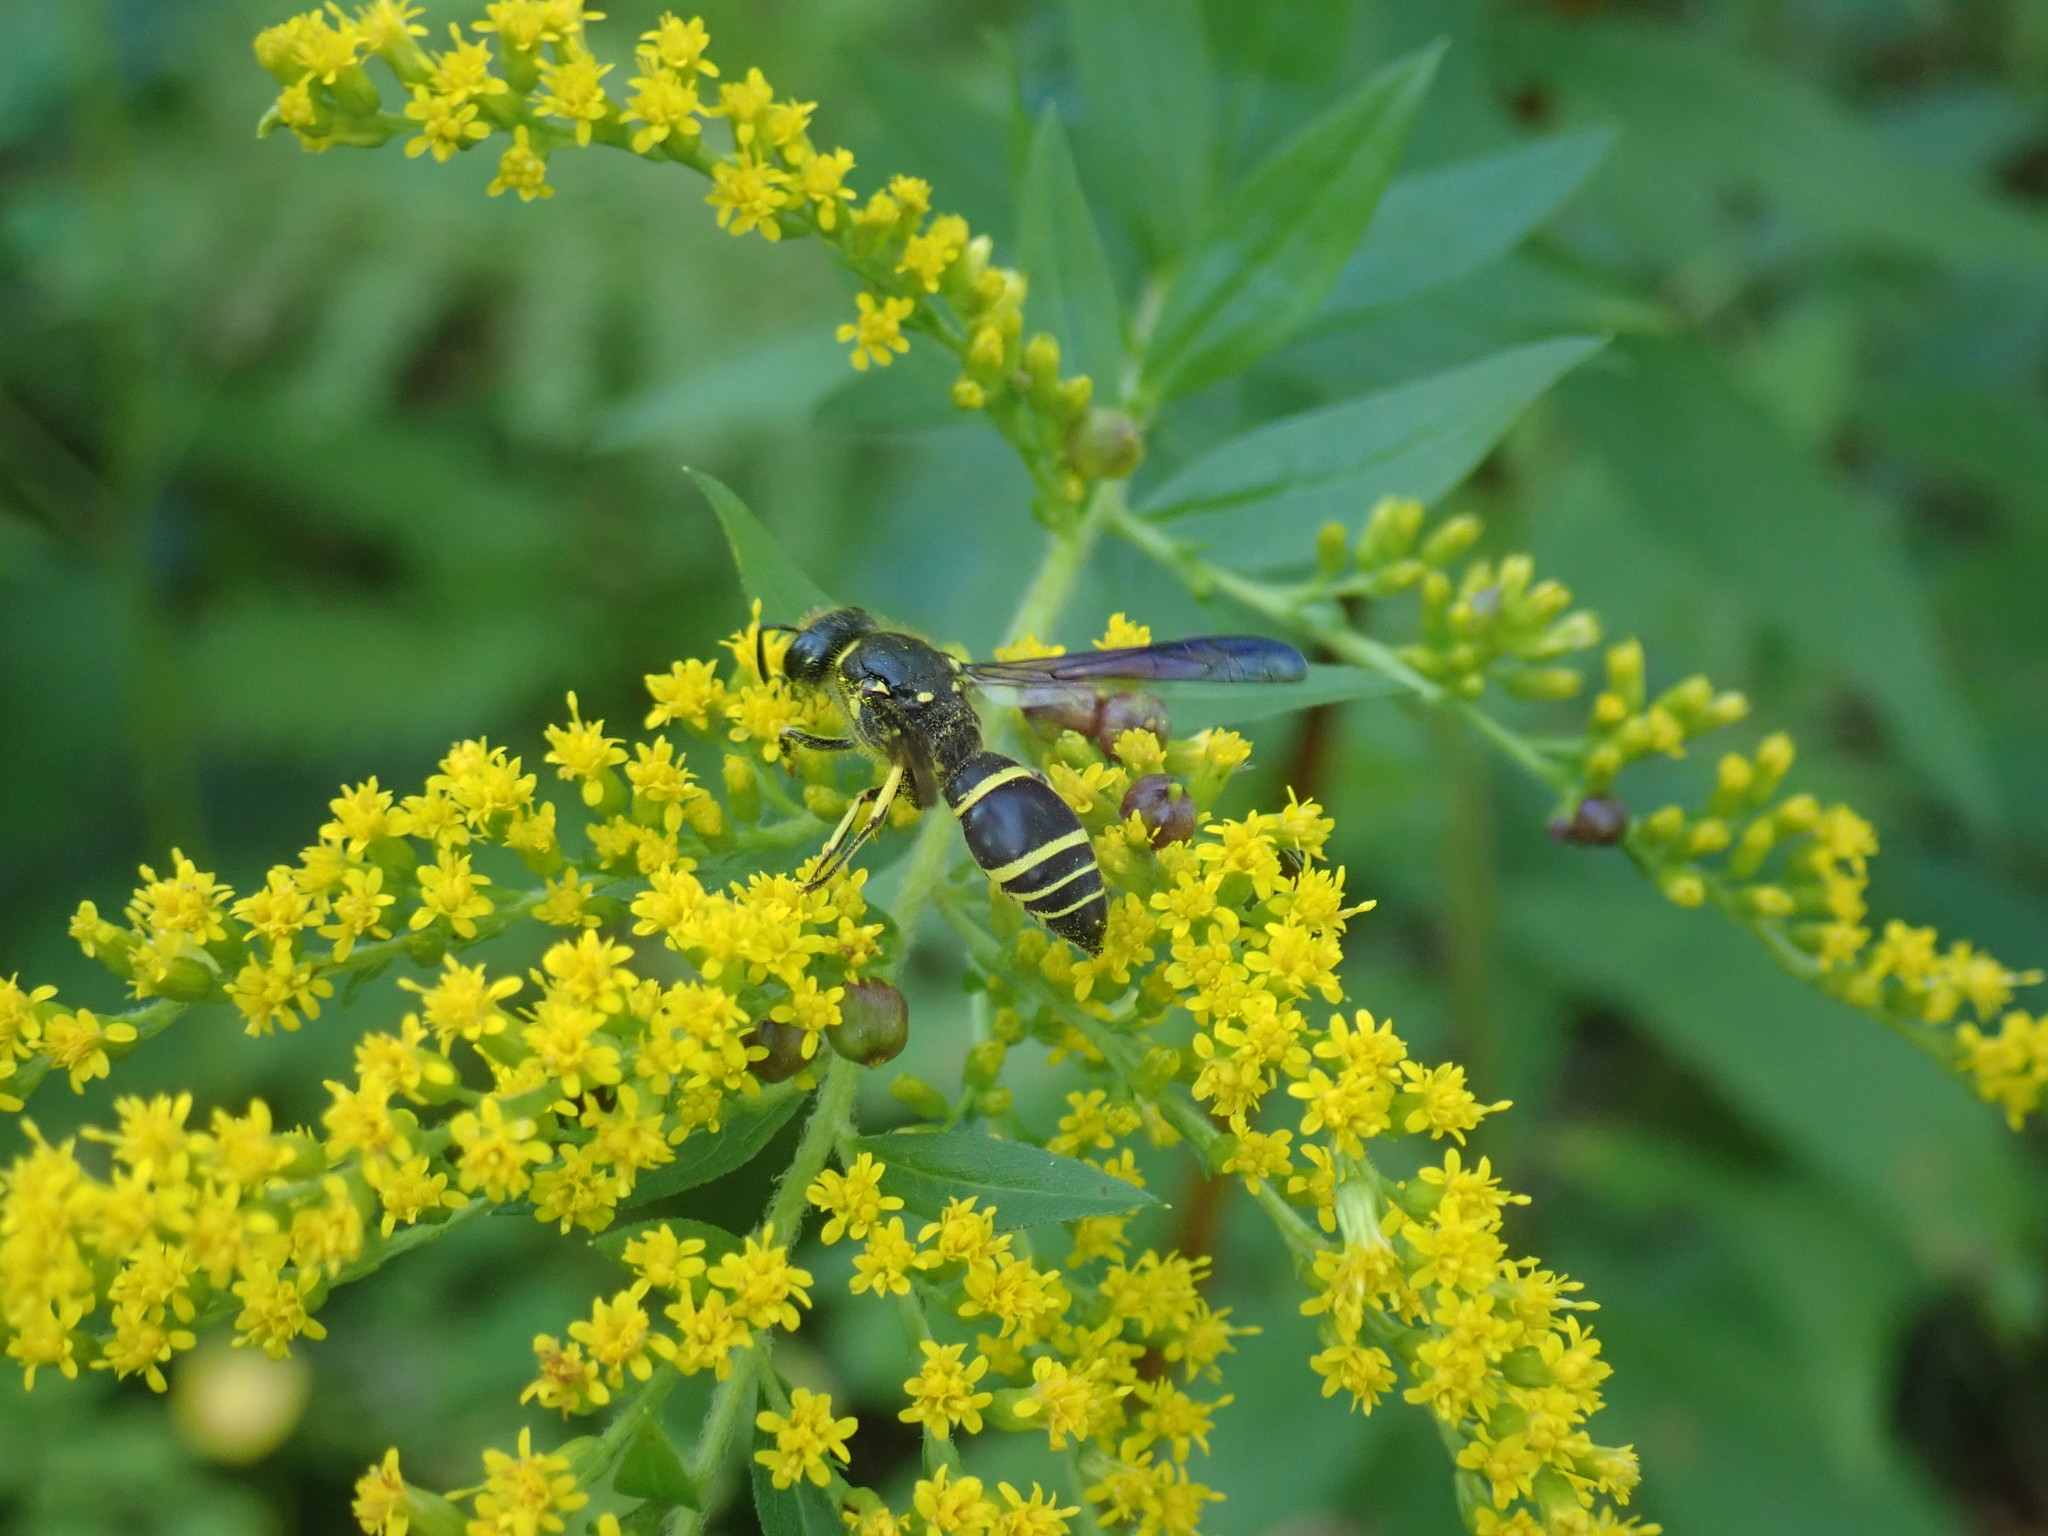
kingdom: Animalia
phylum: Arthropoda
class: Insecta
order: Hymenoptera
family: Vespidae
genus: Ancistrocerus
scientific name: Ancistrocerus
